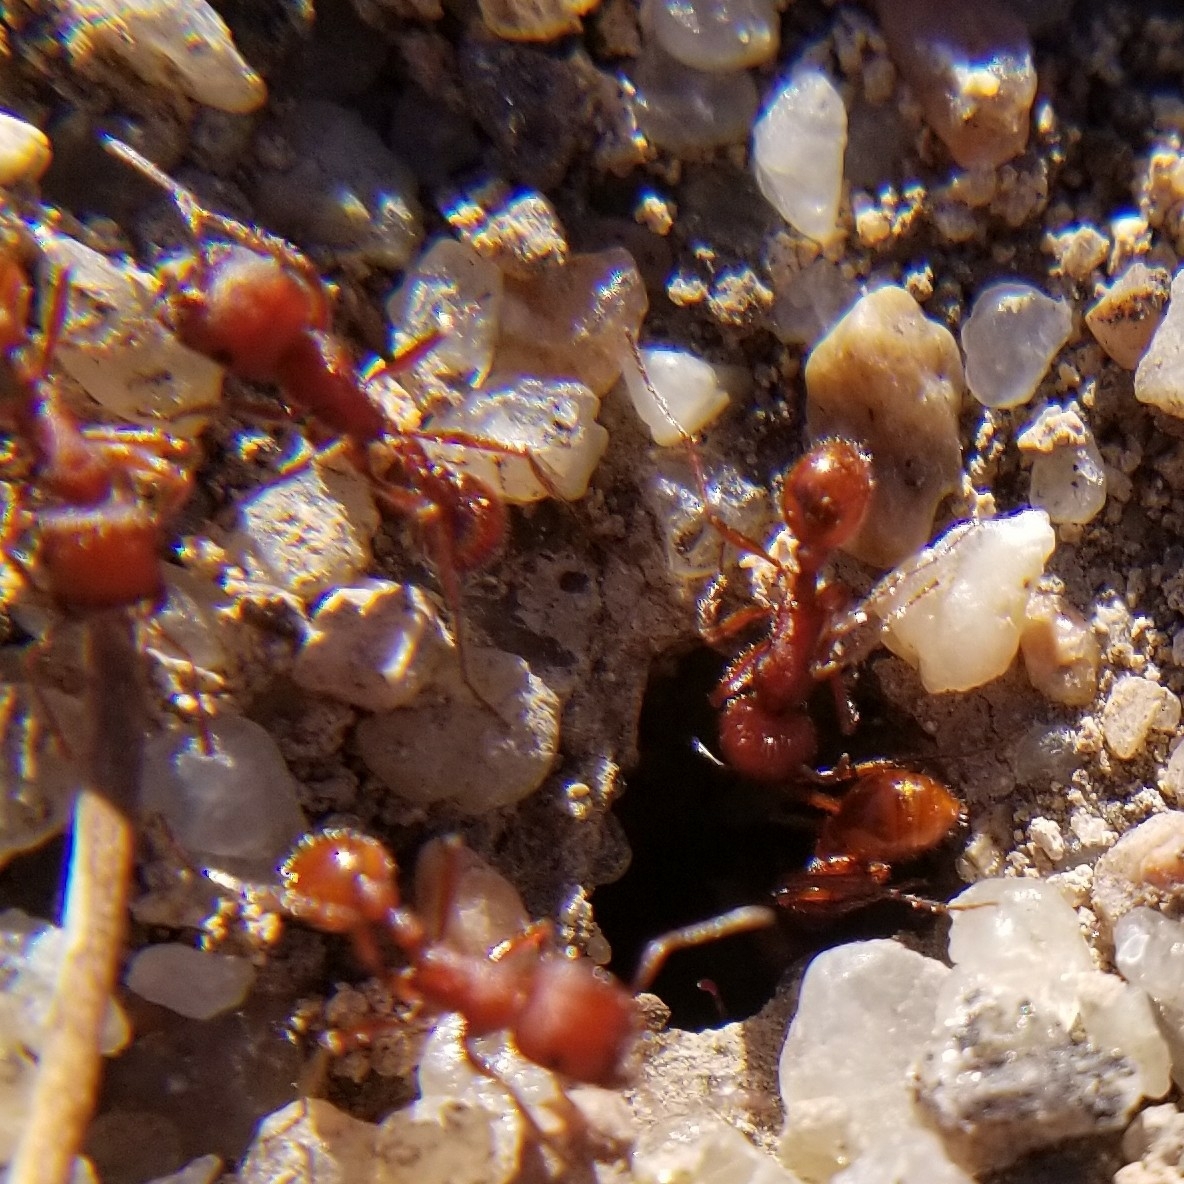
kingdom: Animalia
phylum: Arthropoda
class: Insecta
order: Hymenoptera
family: Formicidae
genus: Pogonomyrmex
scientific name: Pogonomyrmex occidentalis
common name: Western harvester ant
